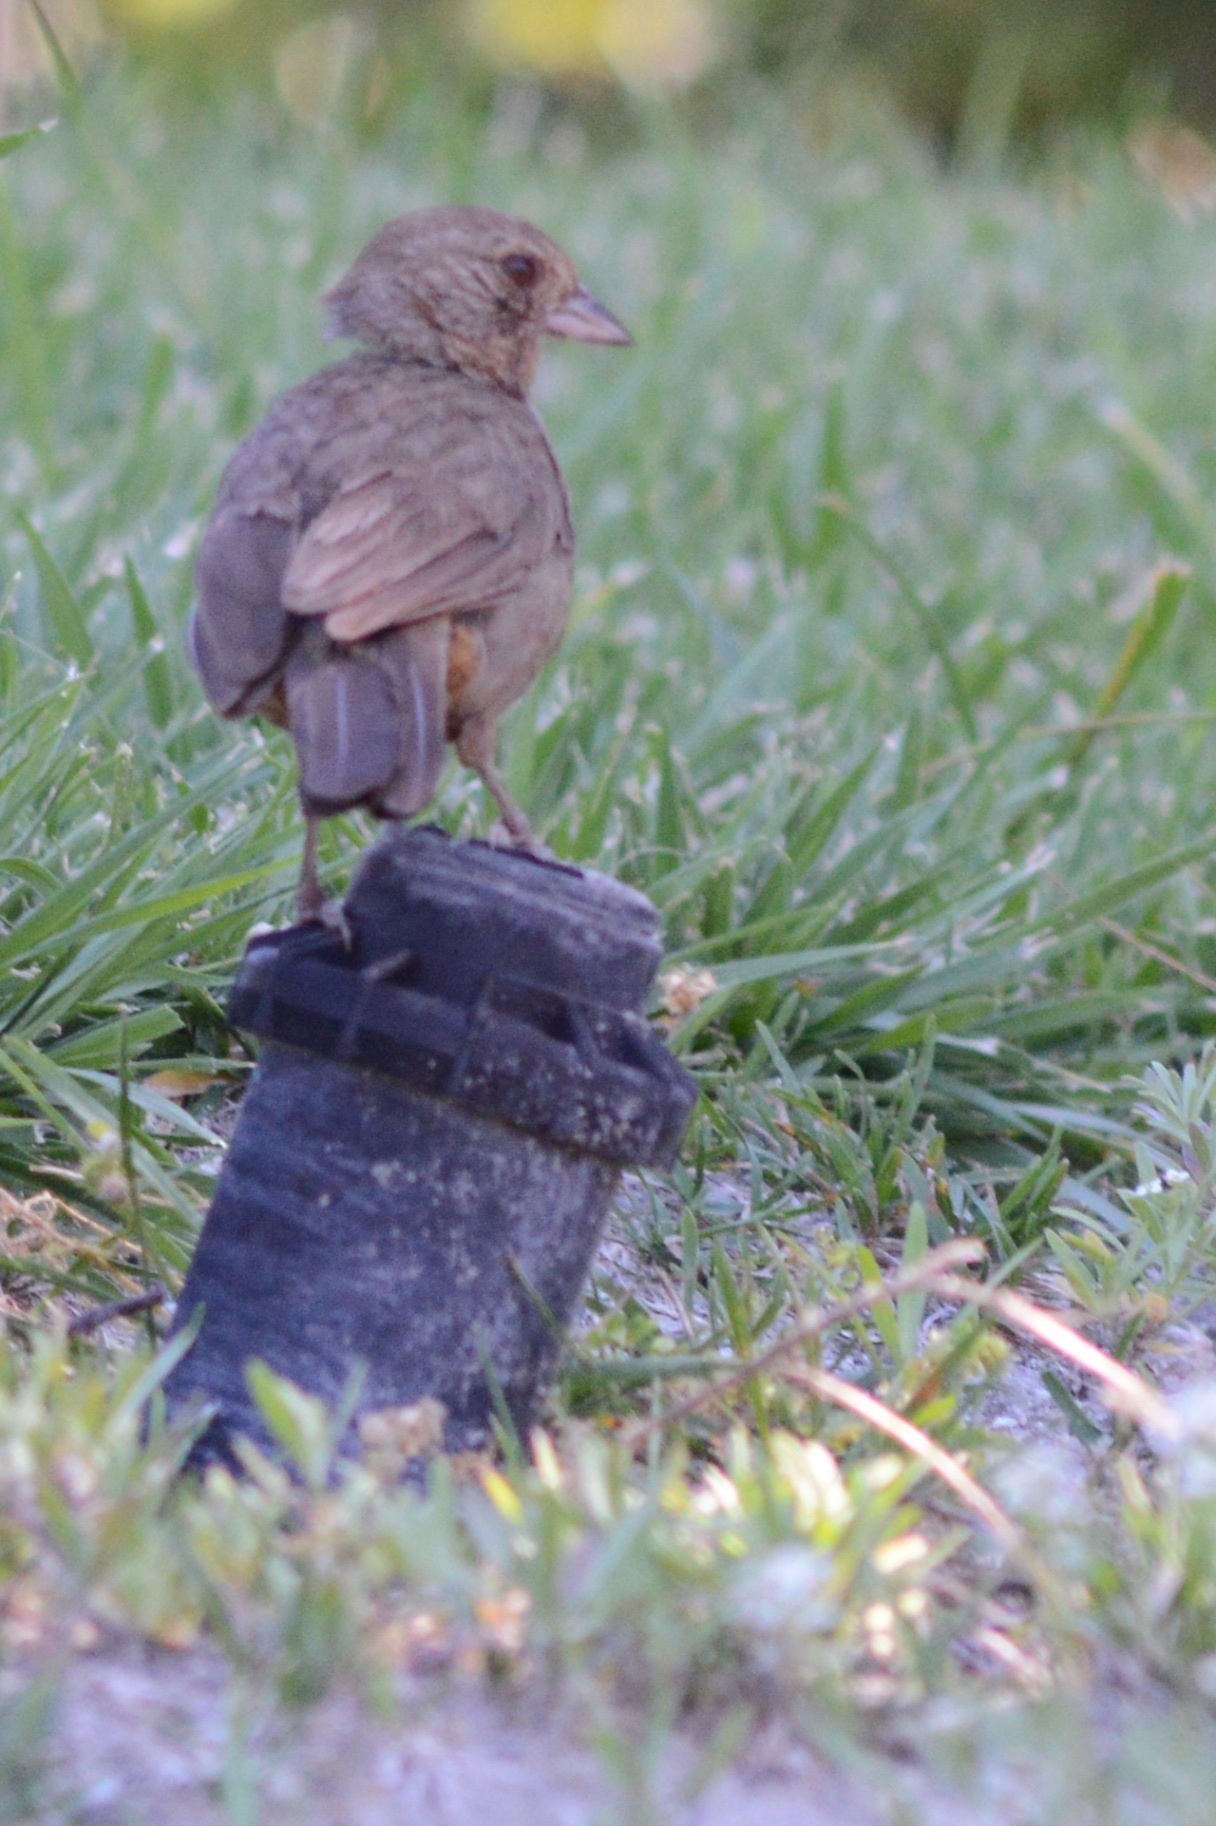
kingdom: Animalia
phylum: Chordata
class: Aves
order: Passeriformes
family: Passerellidae
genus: Melozone
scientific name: Melozone crissalis
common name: California towhee
